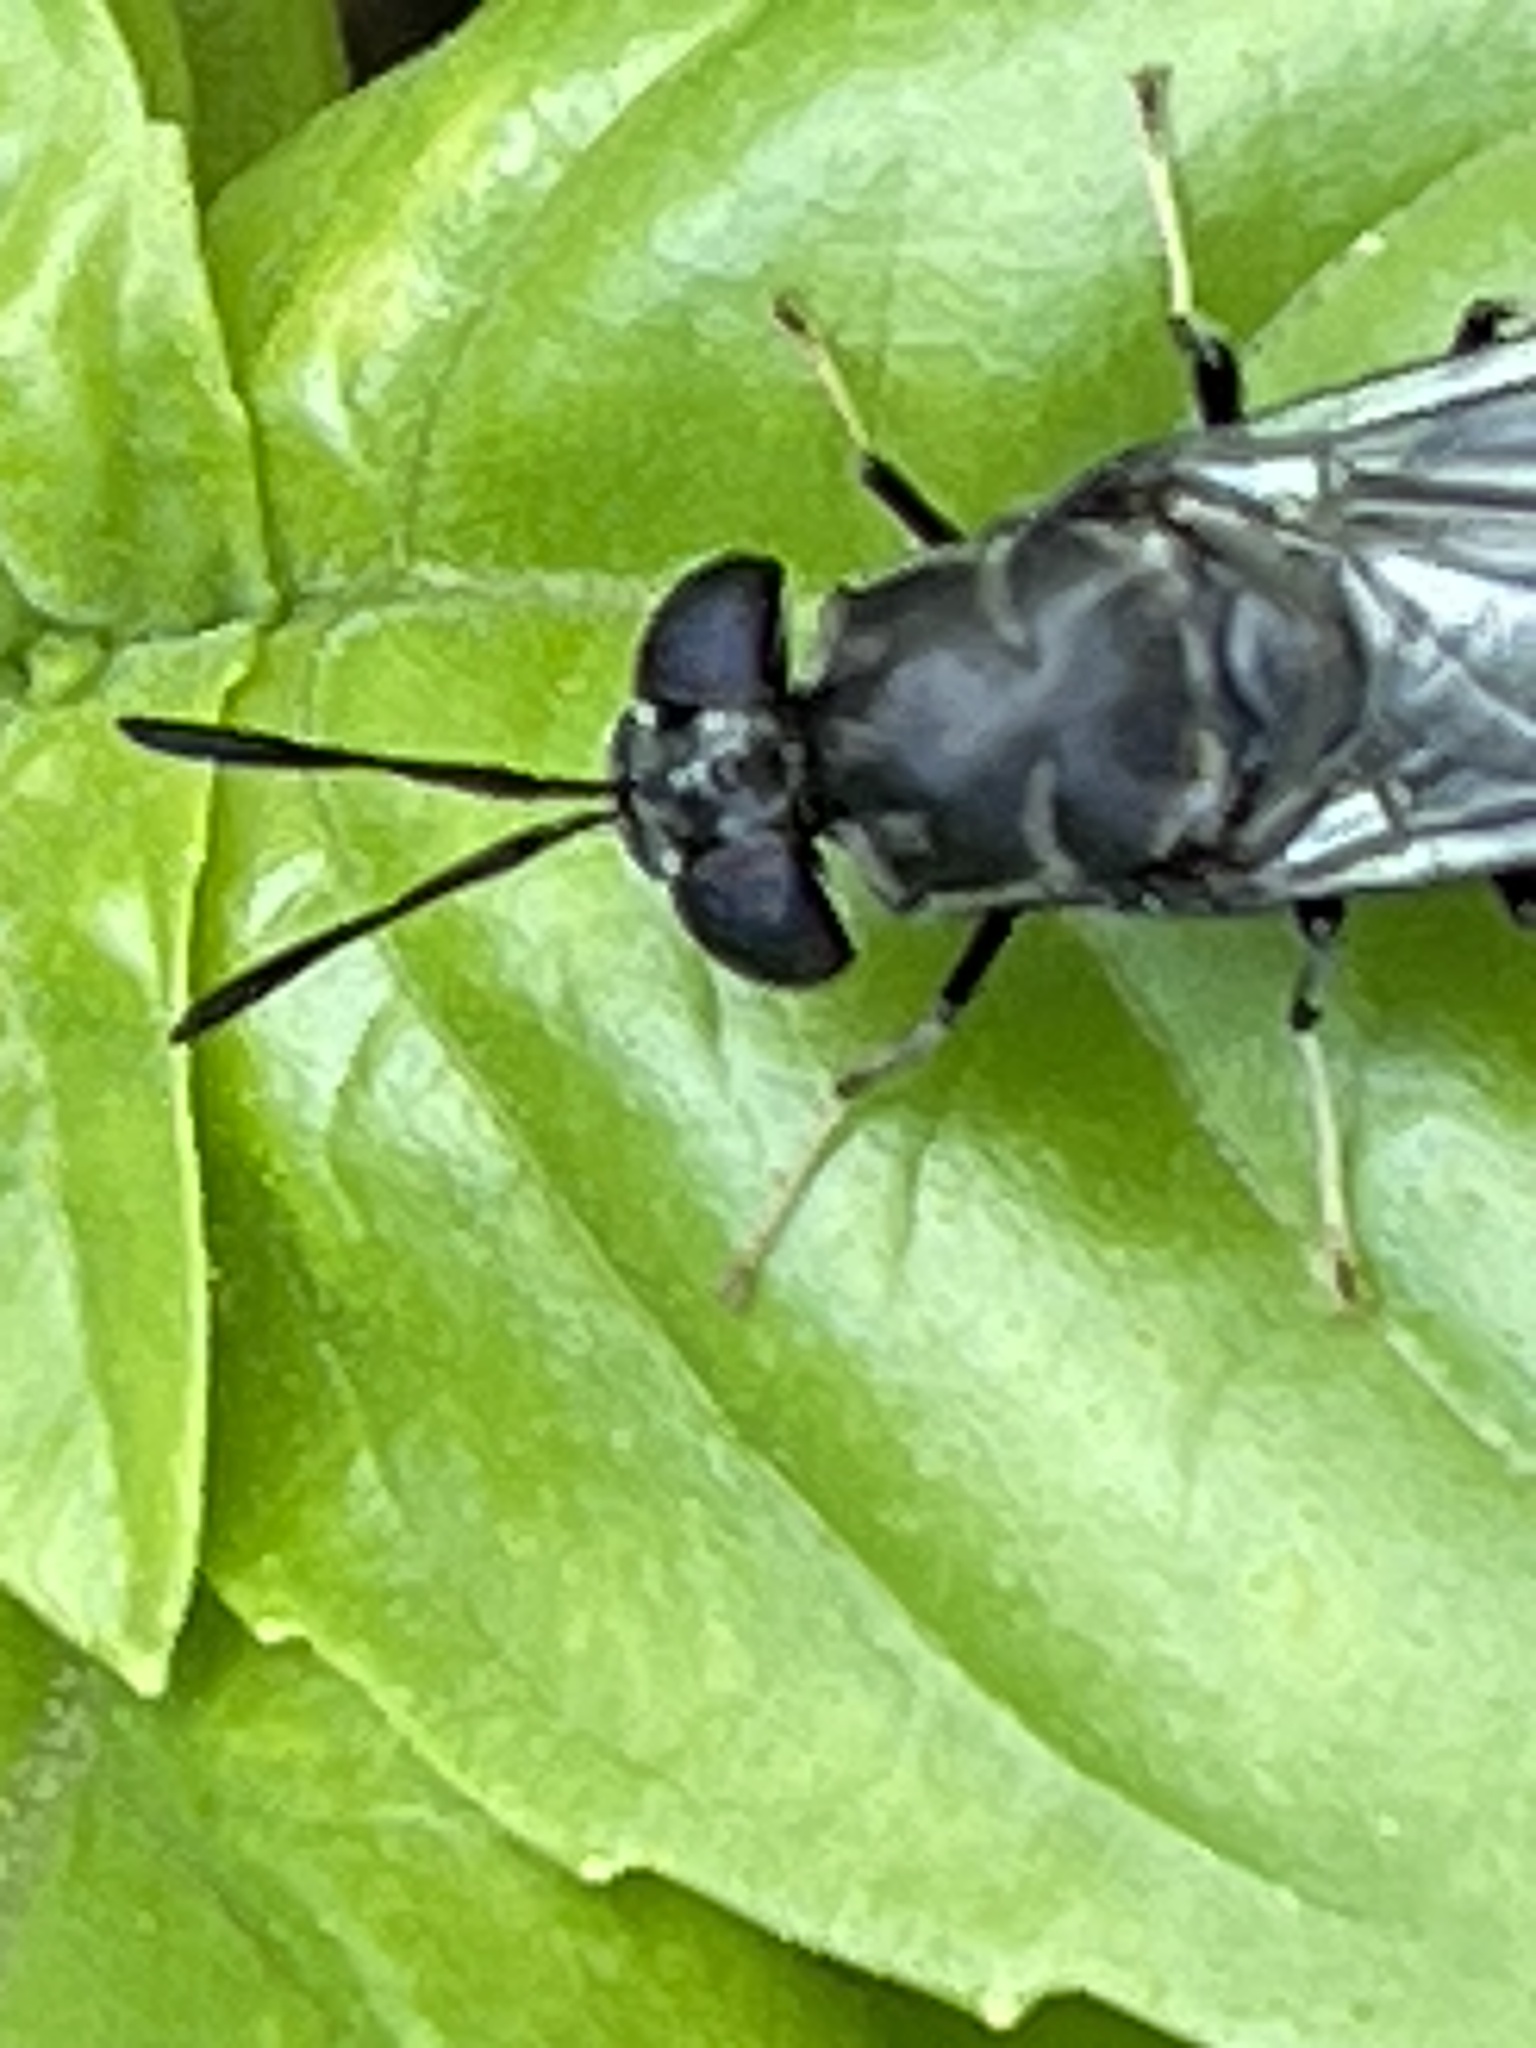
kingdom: Animalia
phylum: Arthropoda
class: Insecta
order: Diptera
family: Stratiomyidae
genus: Hermetia
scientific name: Hermetia illucens
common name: Black soldier fly
